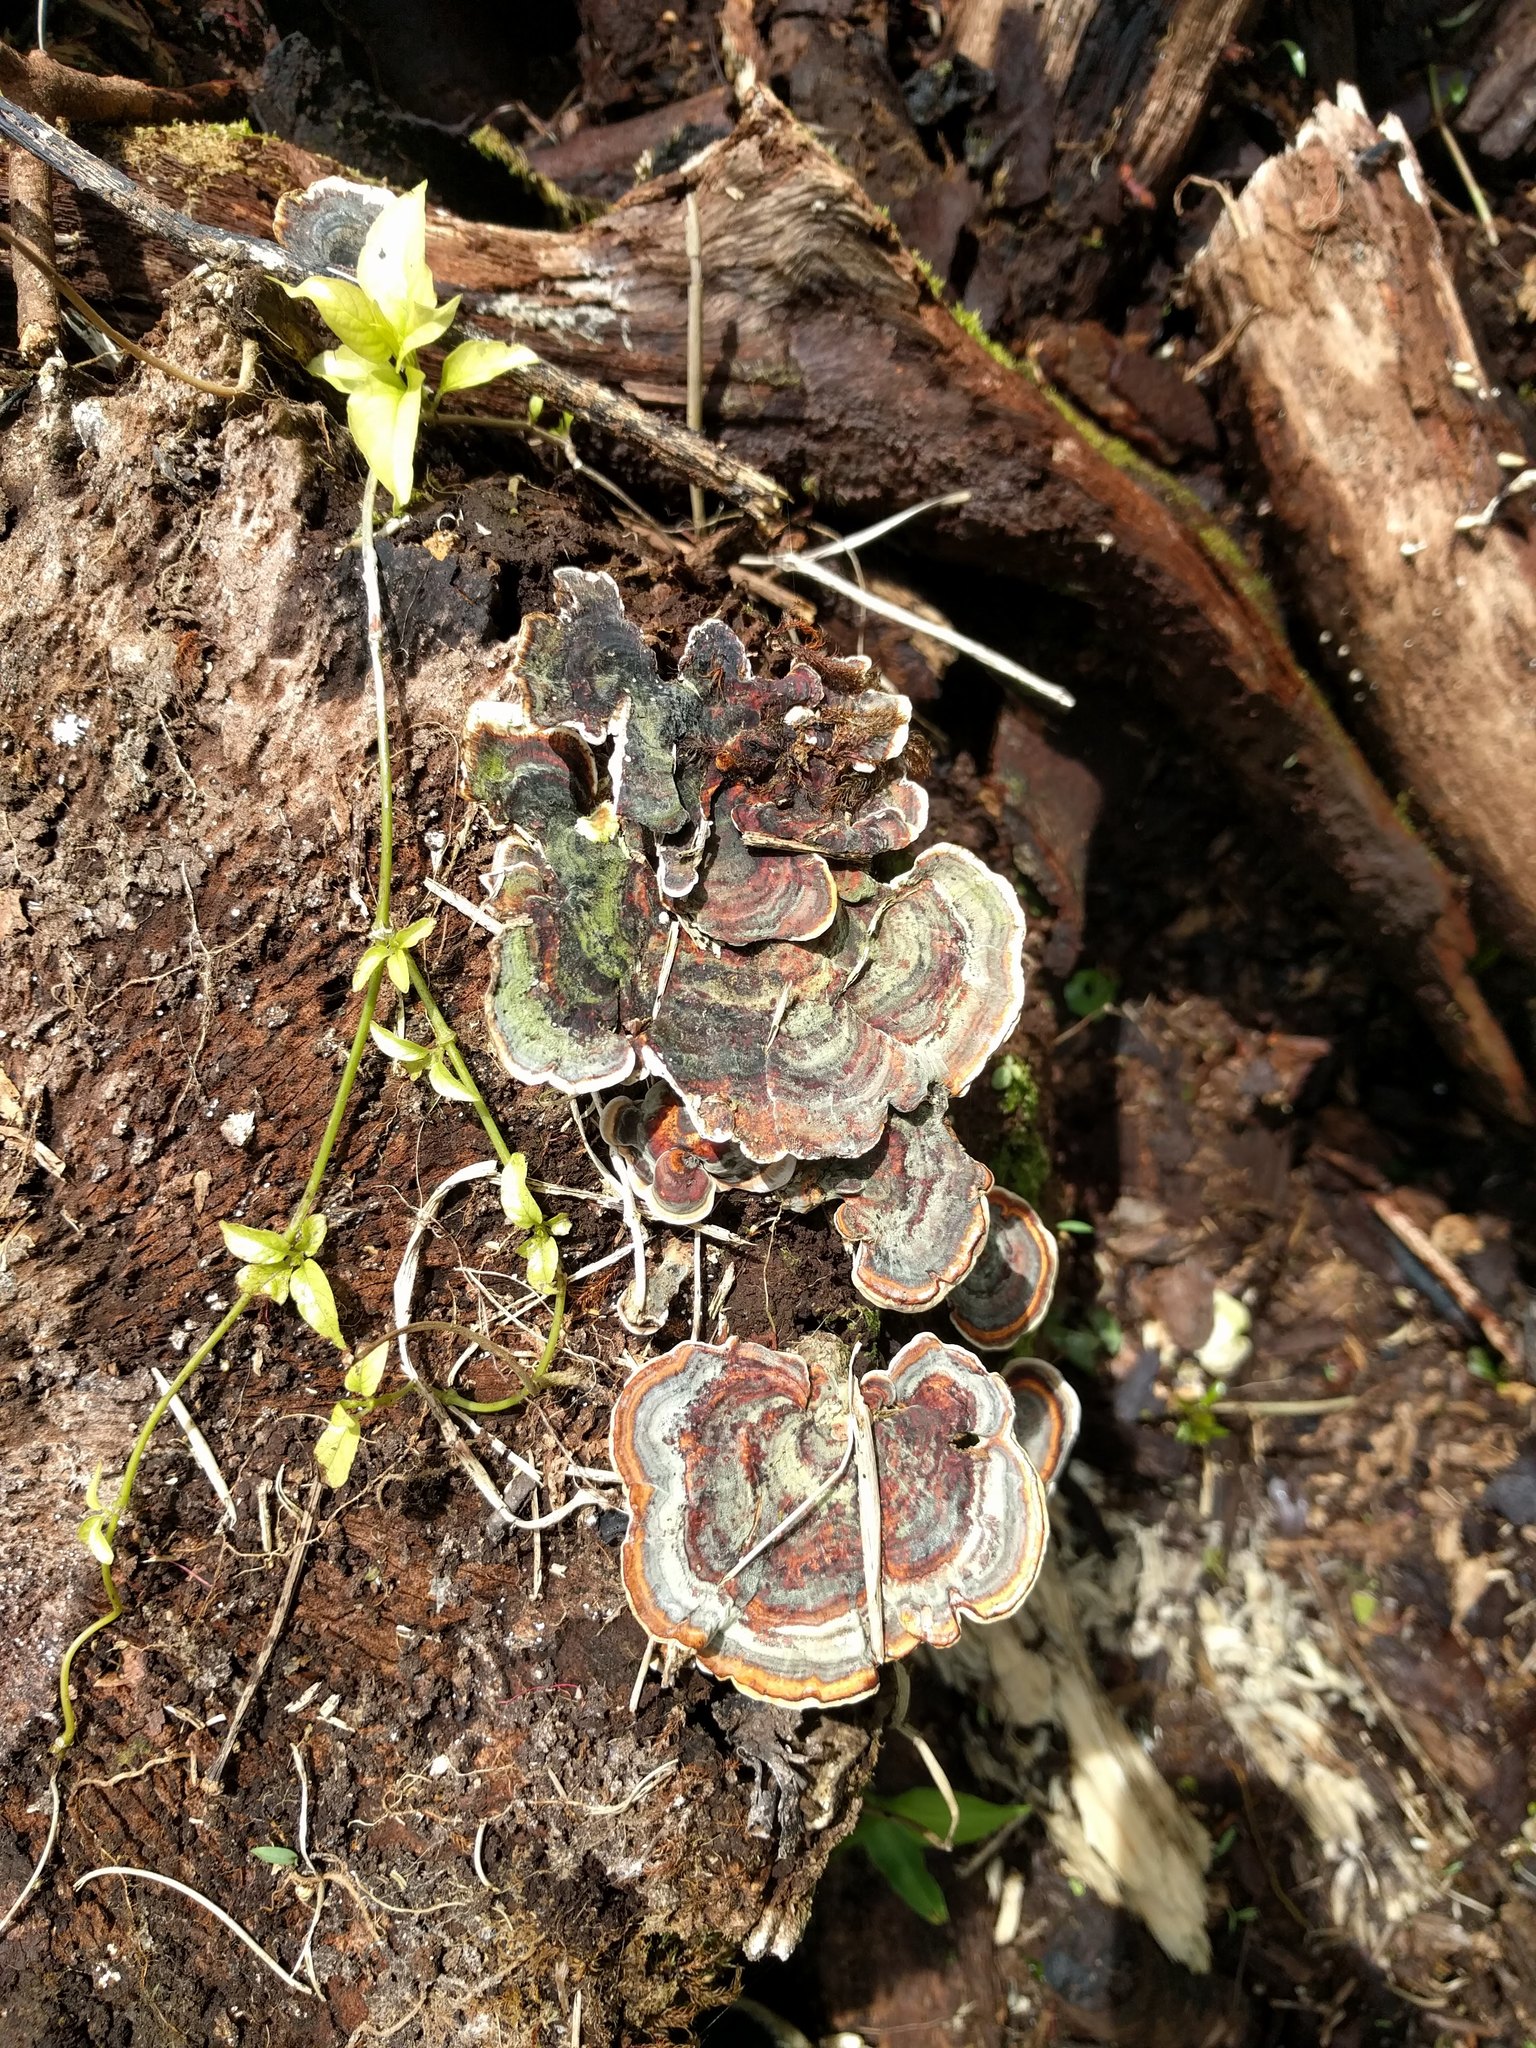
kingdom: Fungi
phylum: Basidiomycota
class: Agaricomycetes
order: Polyporales
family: Polyporaceae
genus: Microporus
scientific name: Microporus affinis
